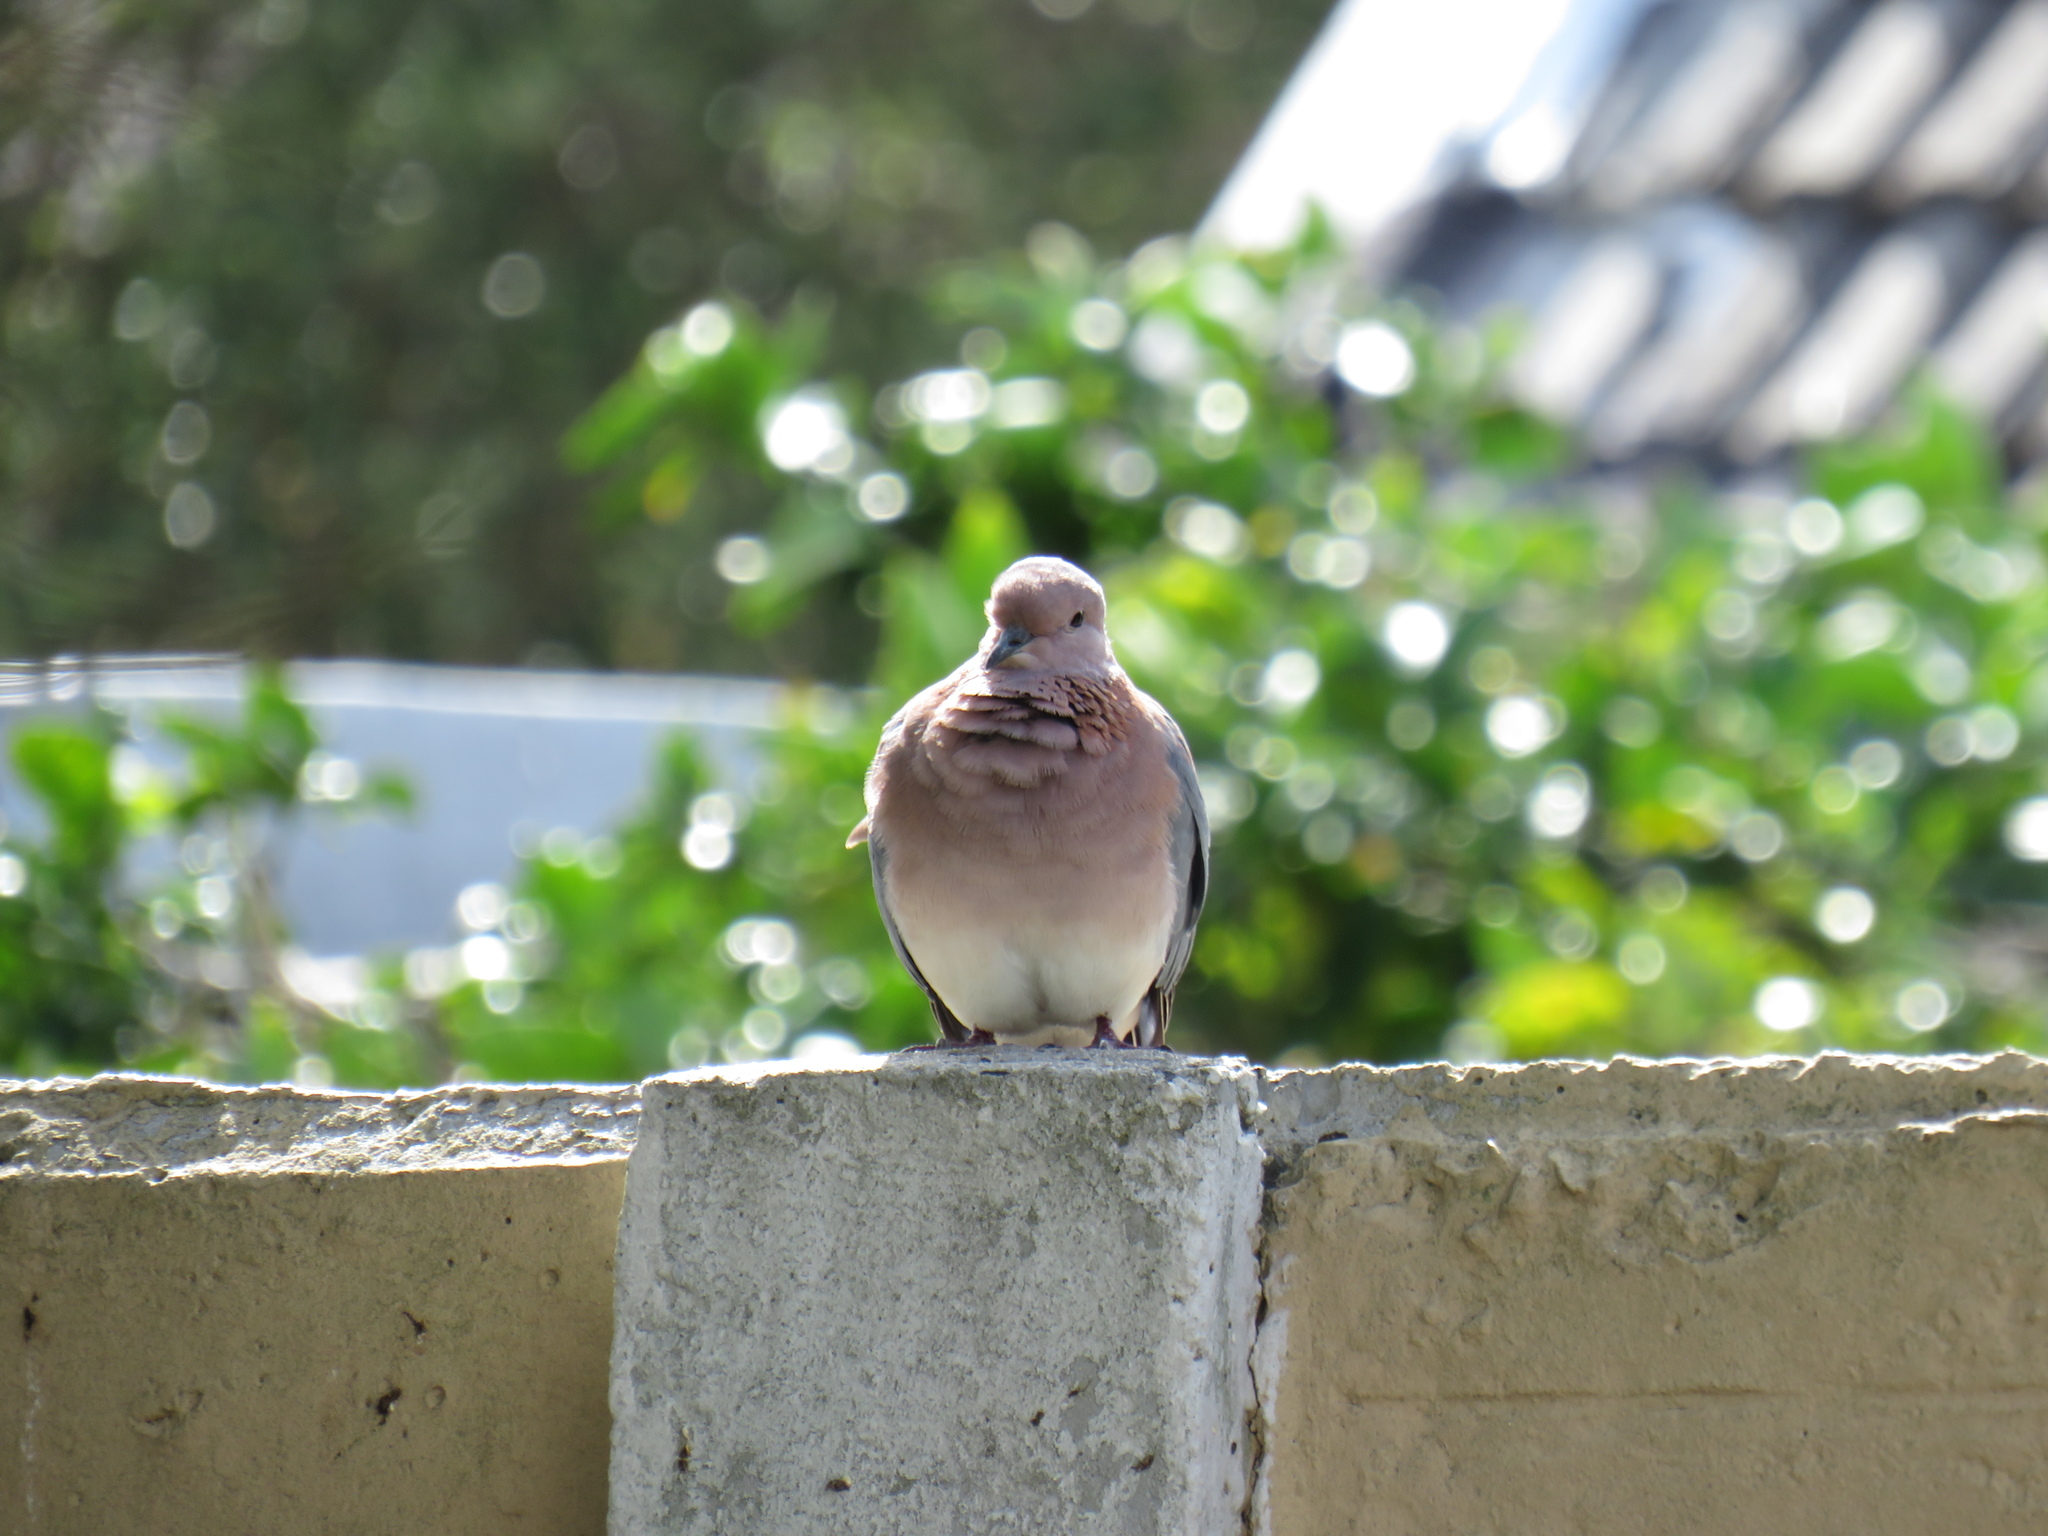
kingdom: Animalia
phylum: Chordata
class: Aves
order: Columbiformes
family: Columbidae
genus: Spilopelia
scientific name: Spilopelia senegalensis
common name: Laughing dove
